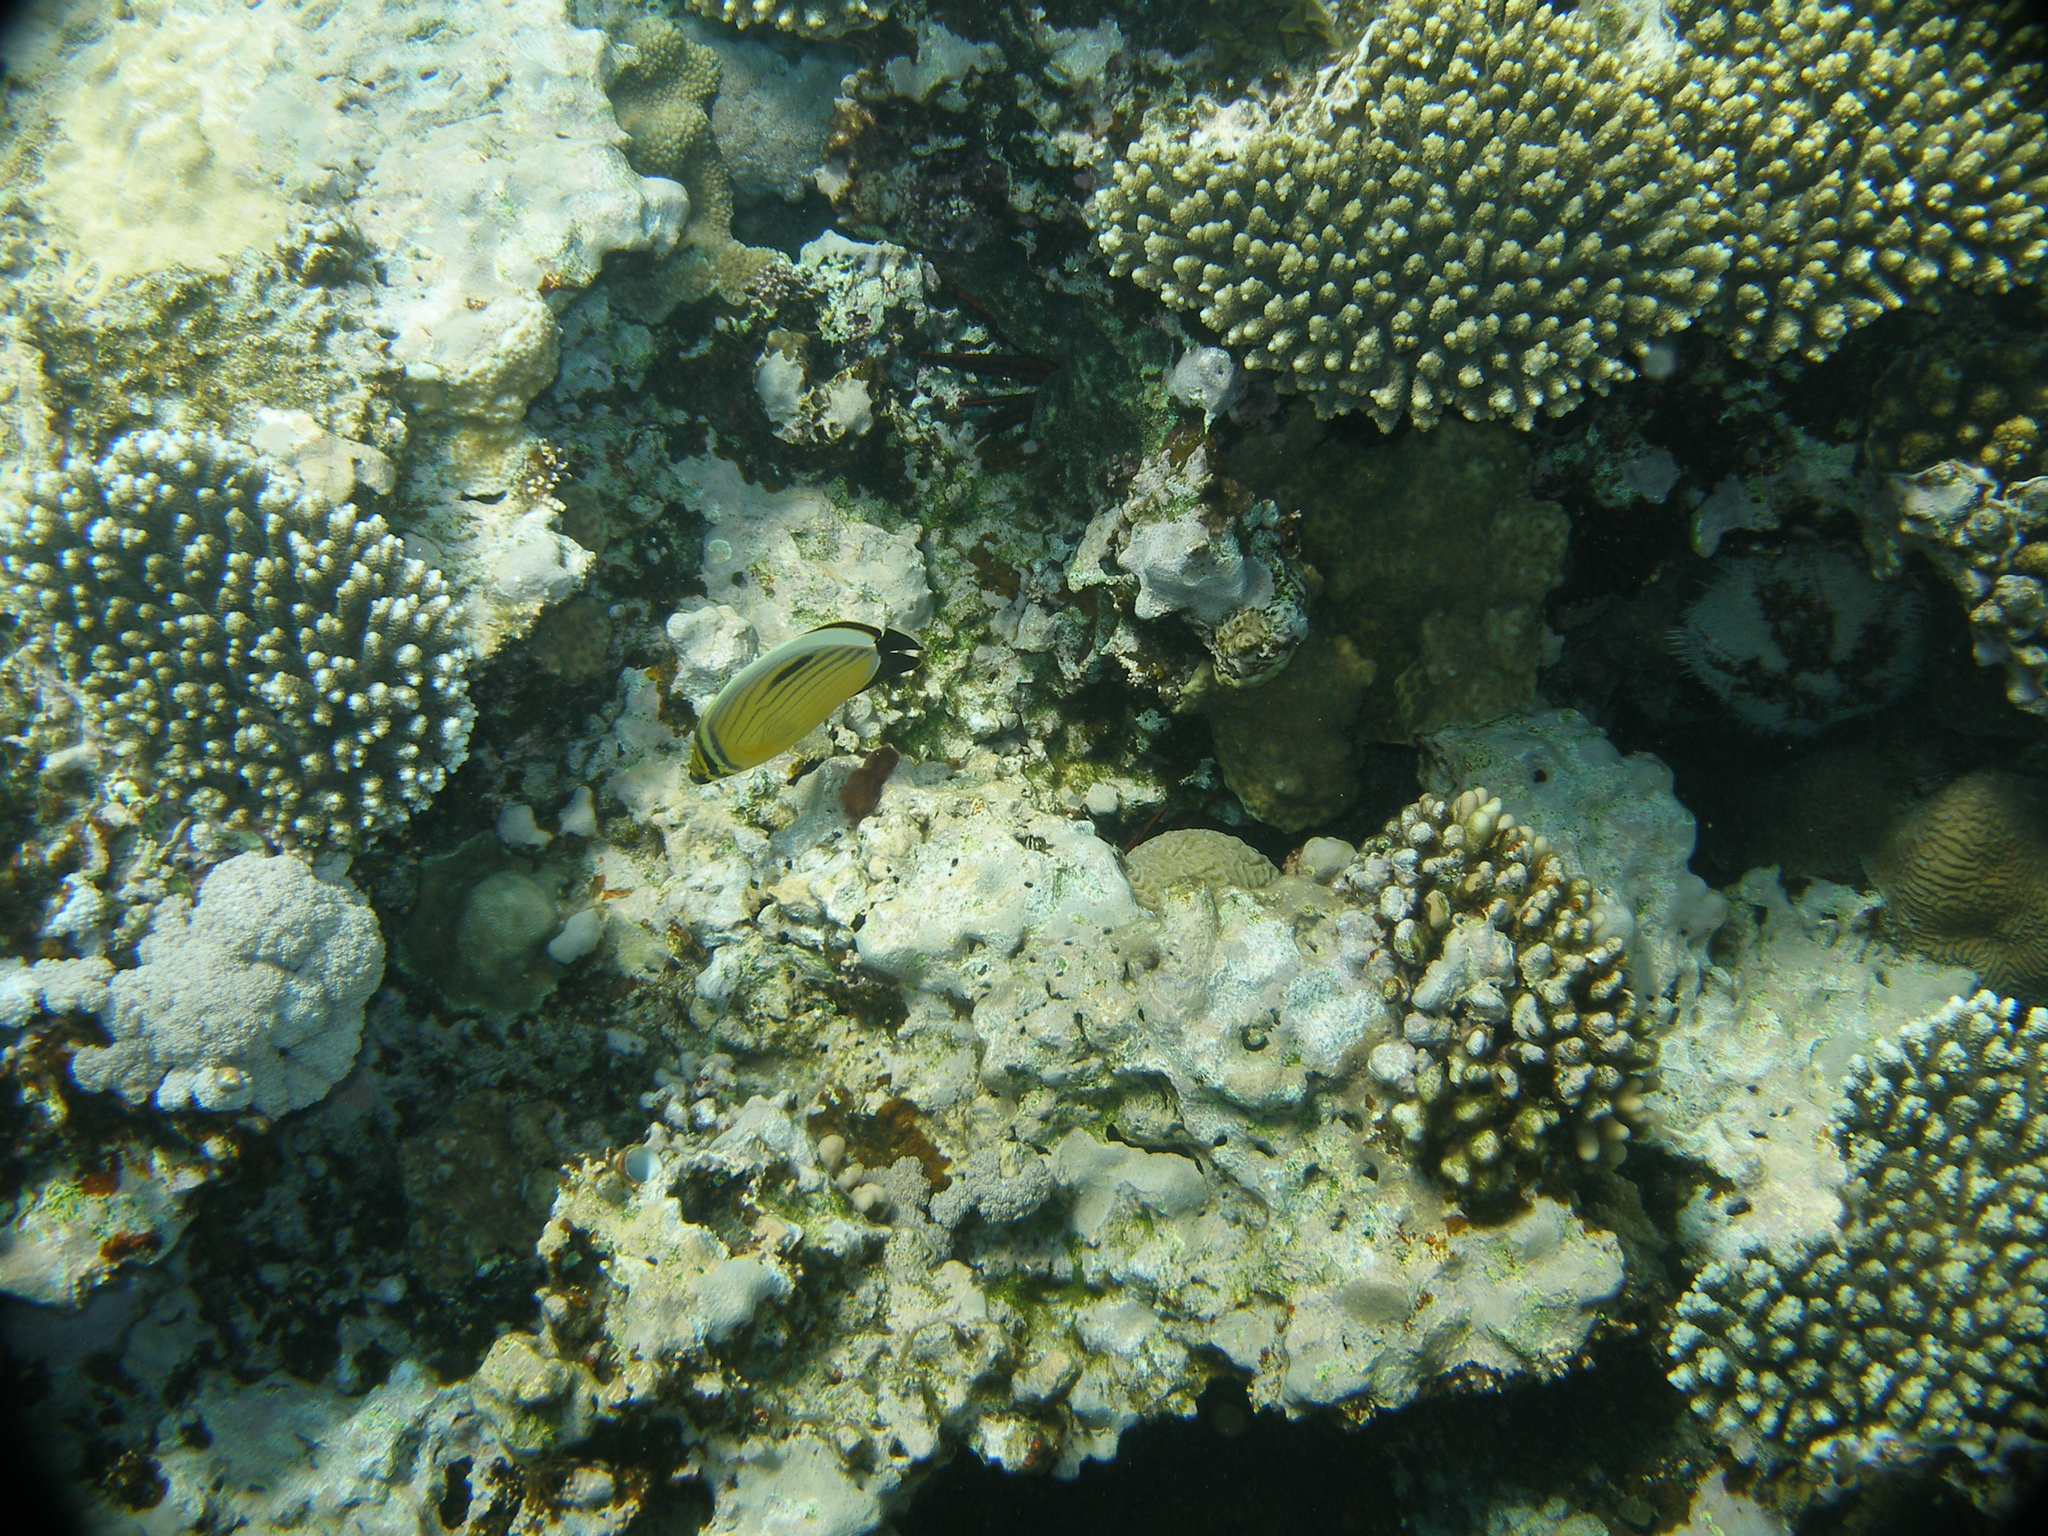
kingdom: Animalia
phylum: Chordata
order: Perciformes
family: Chaetodontidae
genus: Chaetodon
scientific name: Chaetodon austriacus
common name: Exquisite butterflyfish
